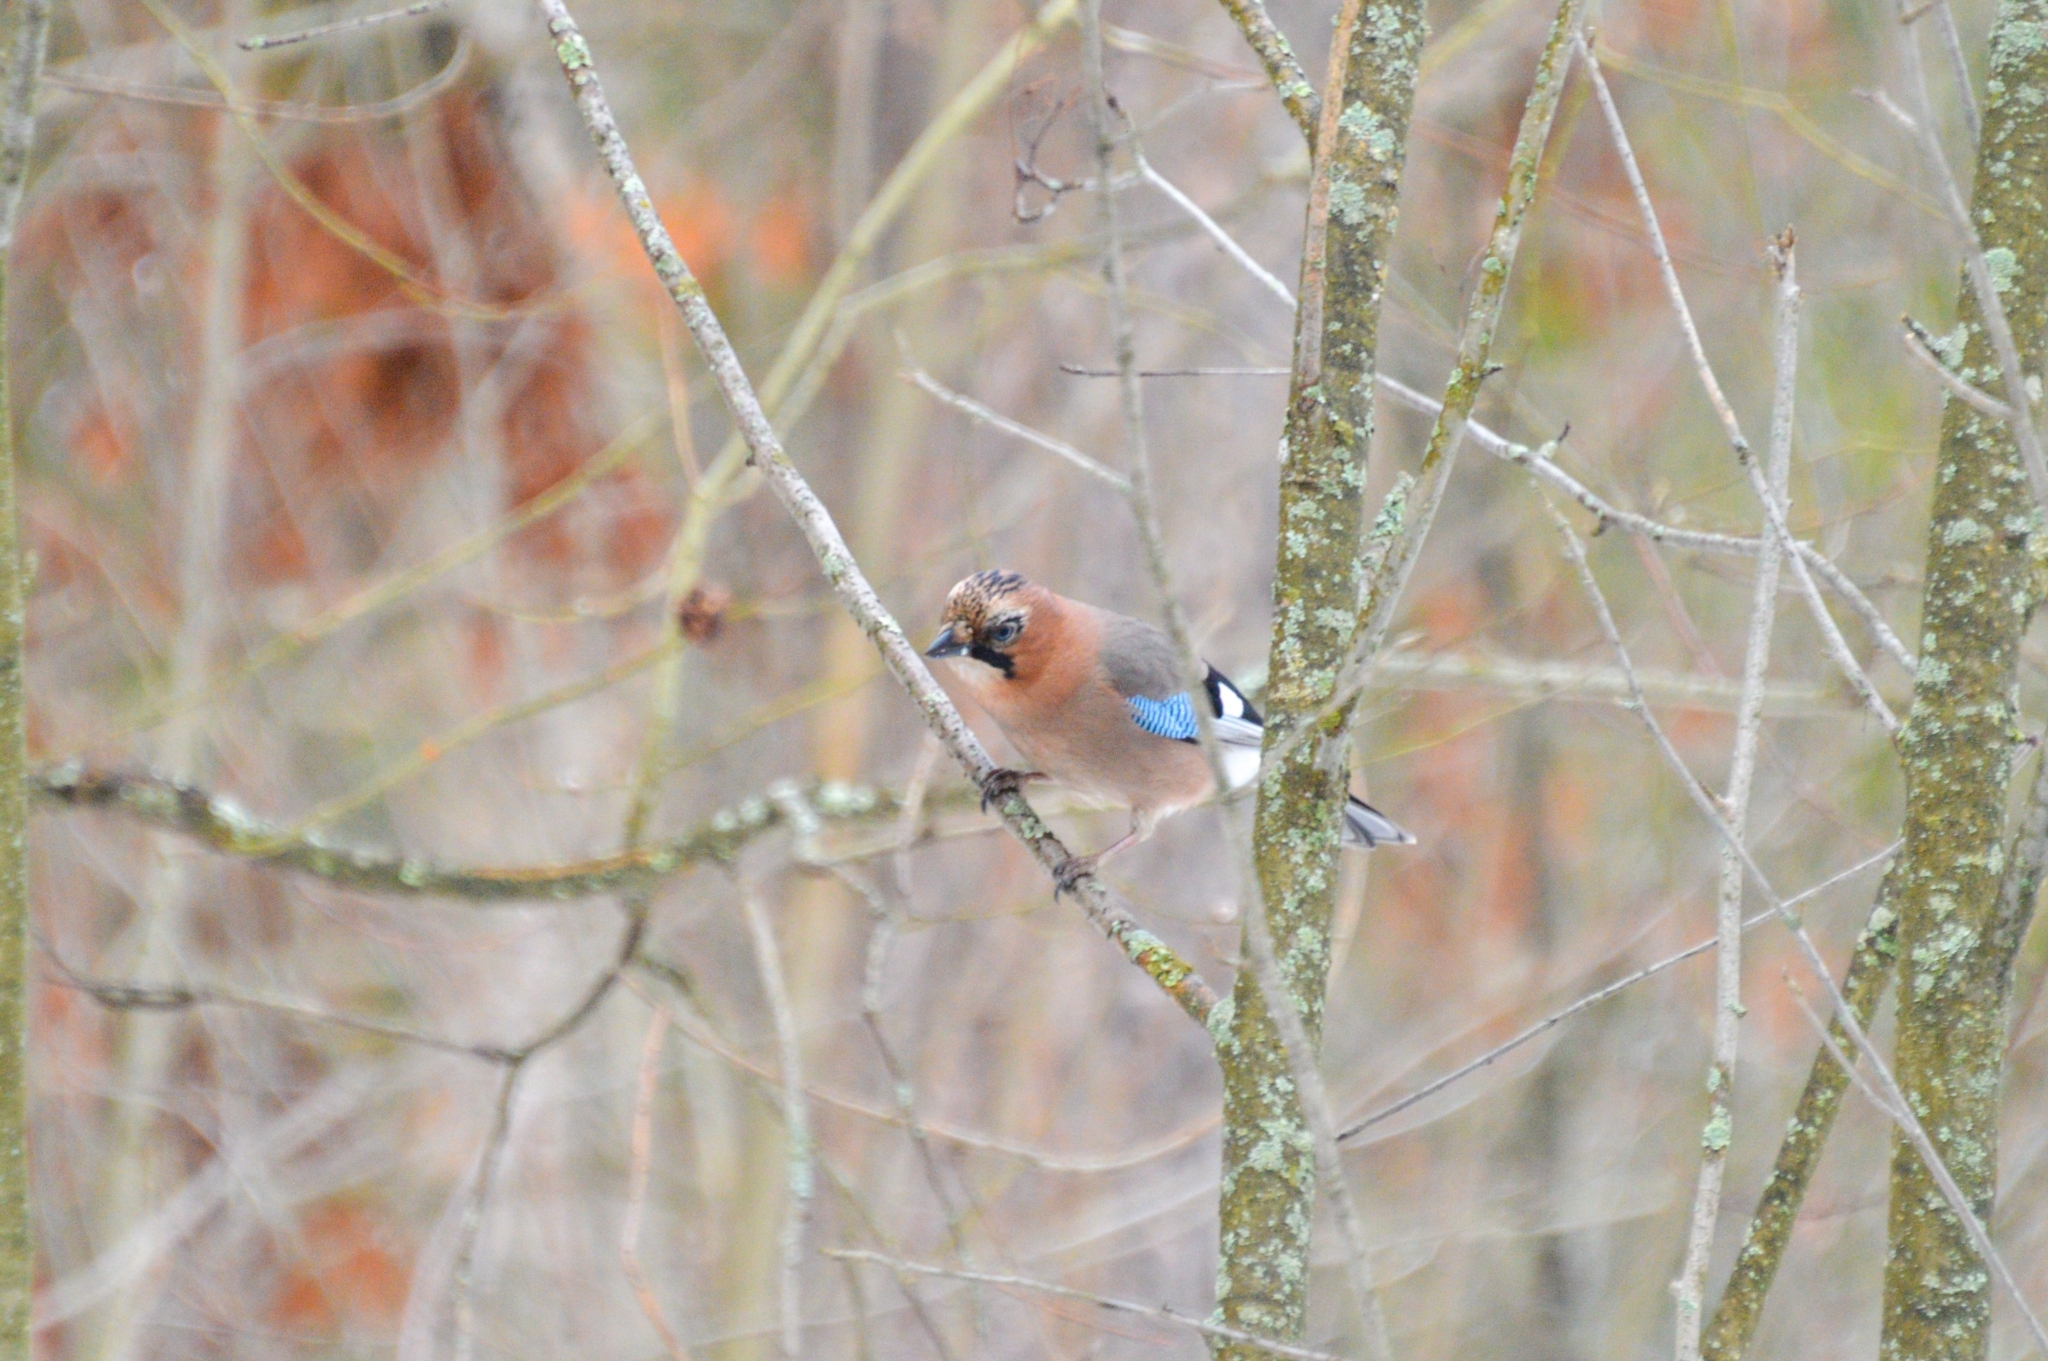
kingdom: Animalia
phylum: Chordata
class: Aves
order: Passeriformes
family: Corvidae
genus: Garrulus
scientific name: Garrulus glandarius
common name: Eurasian jay
